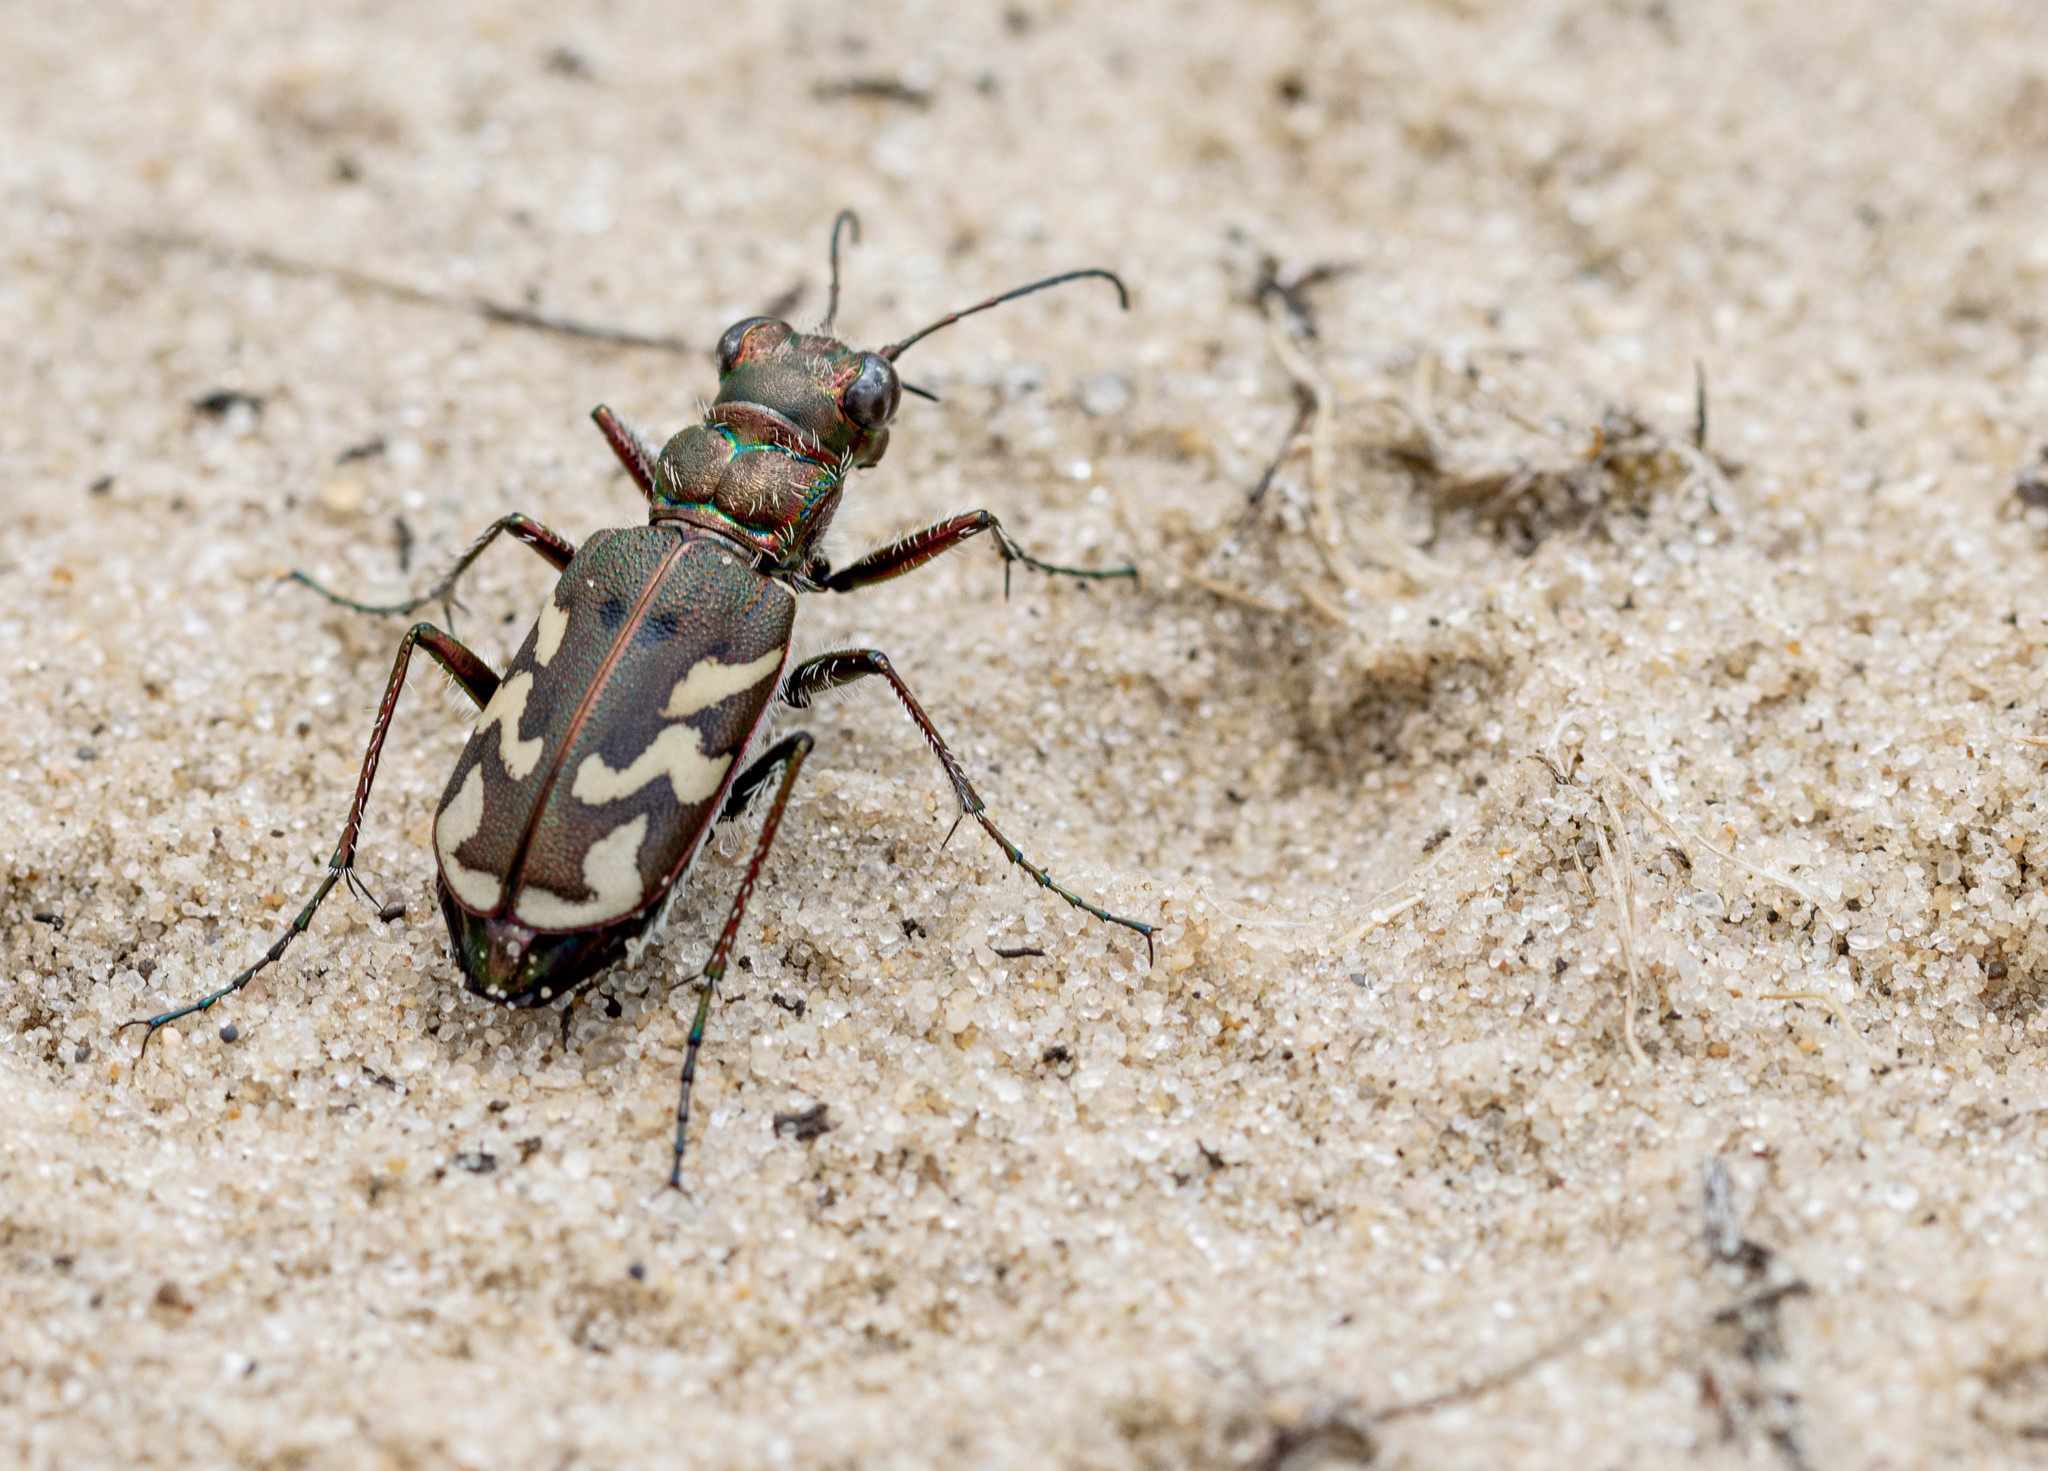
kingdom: Animalia
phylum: Arthropoda
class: Insecta
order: Coleoptera
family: Carabidae
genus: Cicindela
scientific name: Cicindela nordmanni
